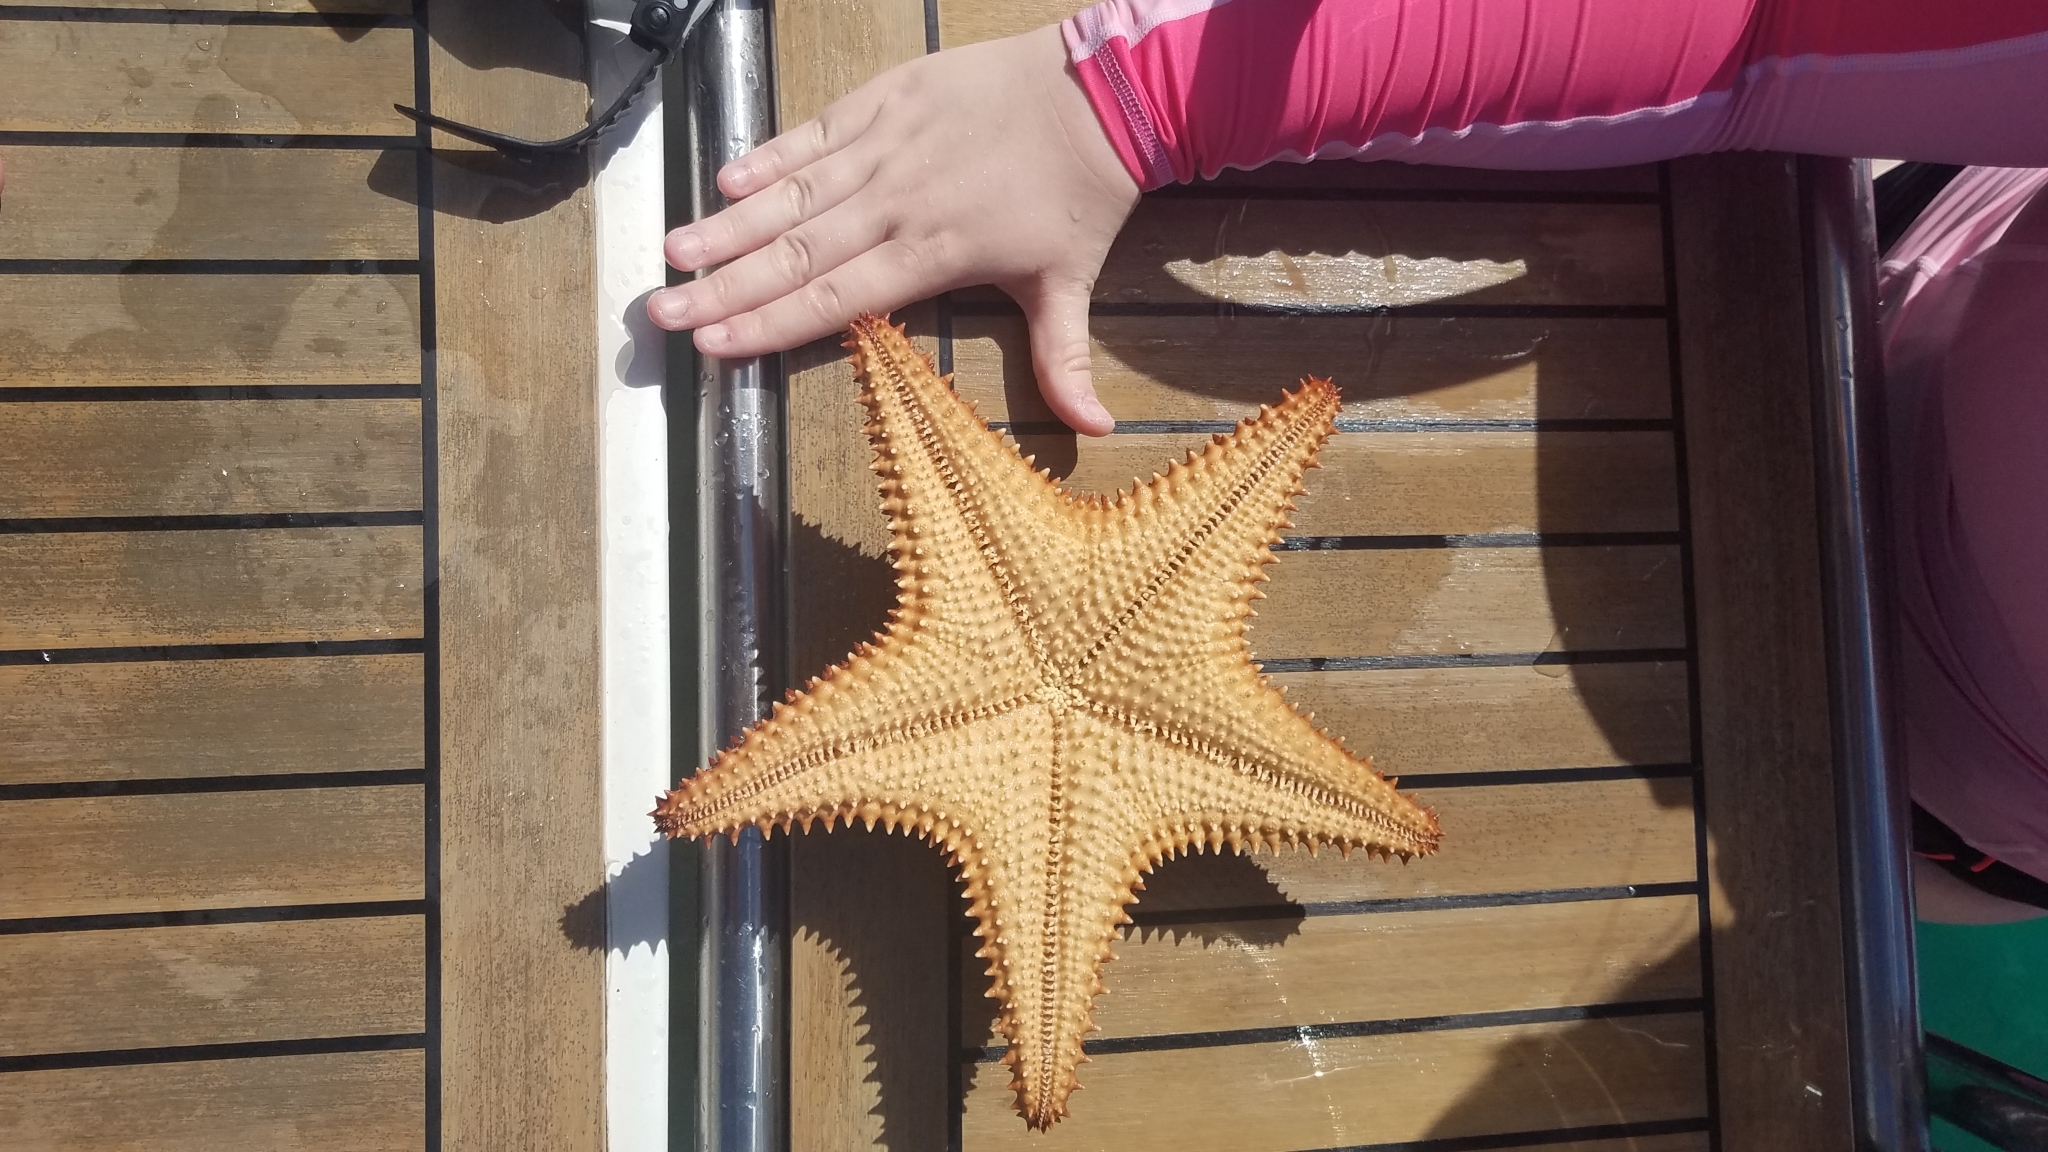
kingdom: Animalia
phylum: Echinodermata
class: Asteroidea
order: Valvatida
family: Oreasteridae
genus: Oreaster
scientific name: Oreaster reticulatus
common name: Cushion sea star
